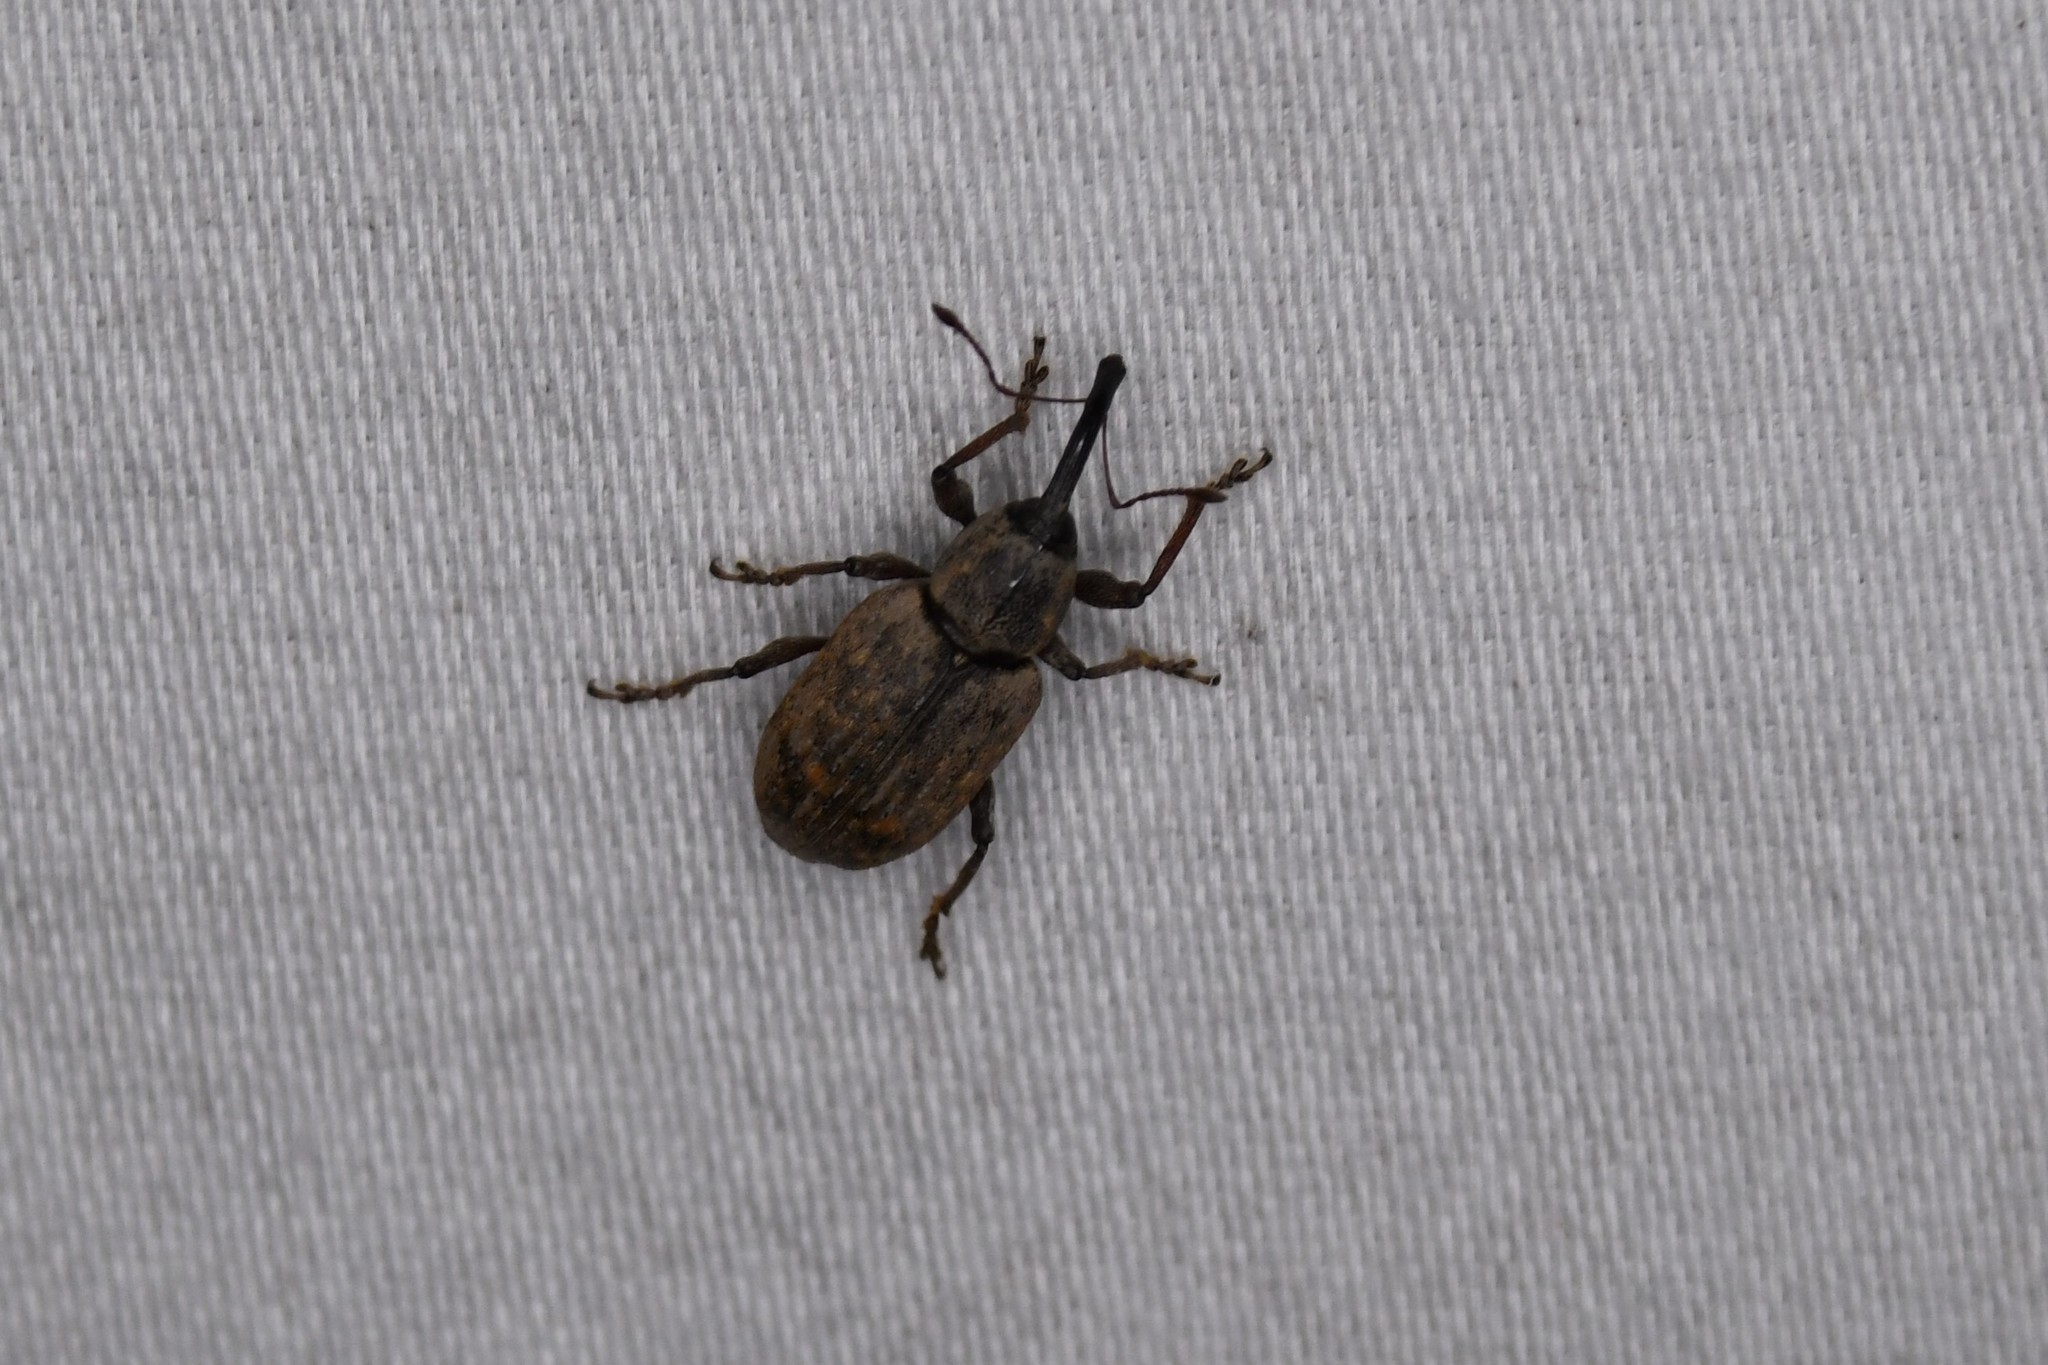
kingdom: Animalia
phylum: Arthropoda
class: Insecta
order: Coleoptera
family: Brachyceridae
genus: Tournotaris
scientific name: Tournotaris bimaculata
